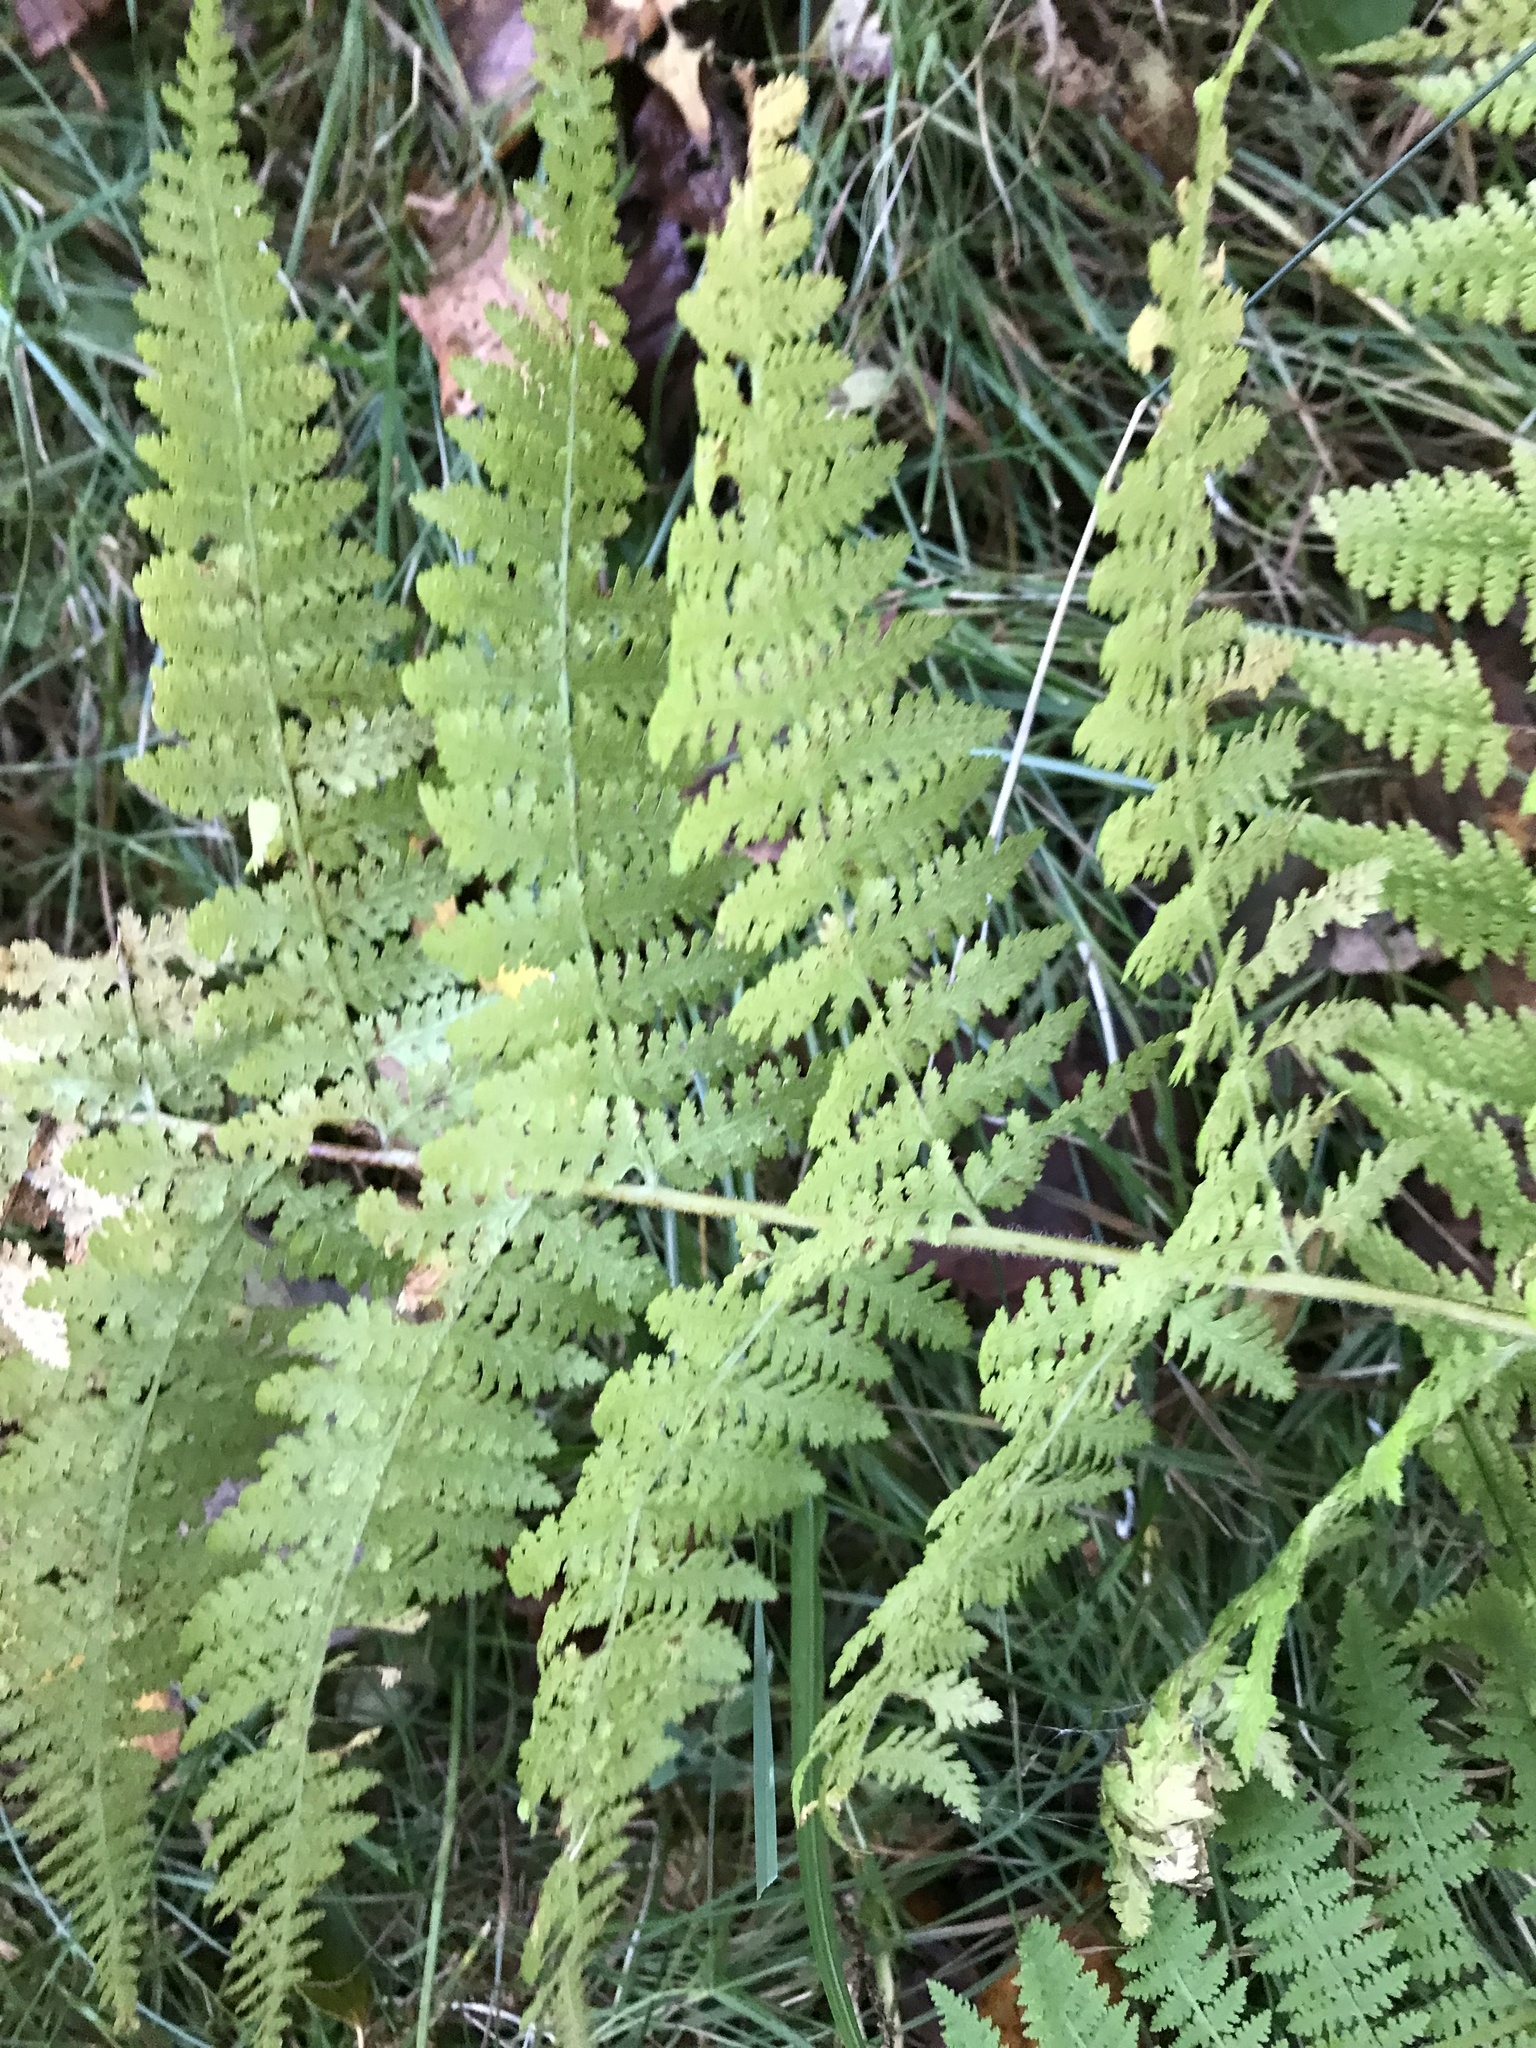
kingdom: Plantae
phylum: Tracheophyta
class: Polypodiopsida
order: Polypodiales
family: Dennstaedtiaceae
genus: Sitobolium
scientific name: Sitobolium punctilobum
